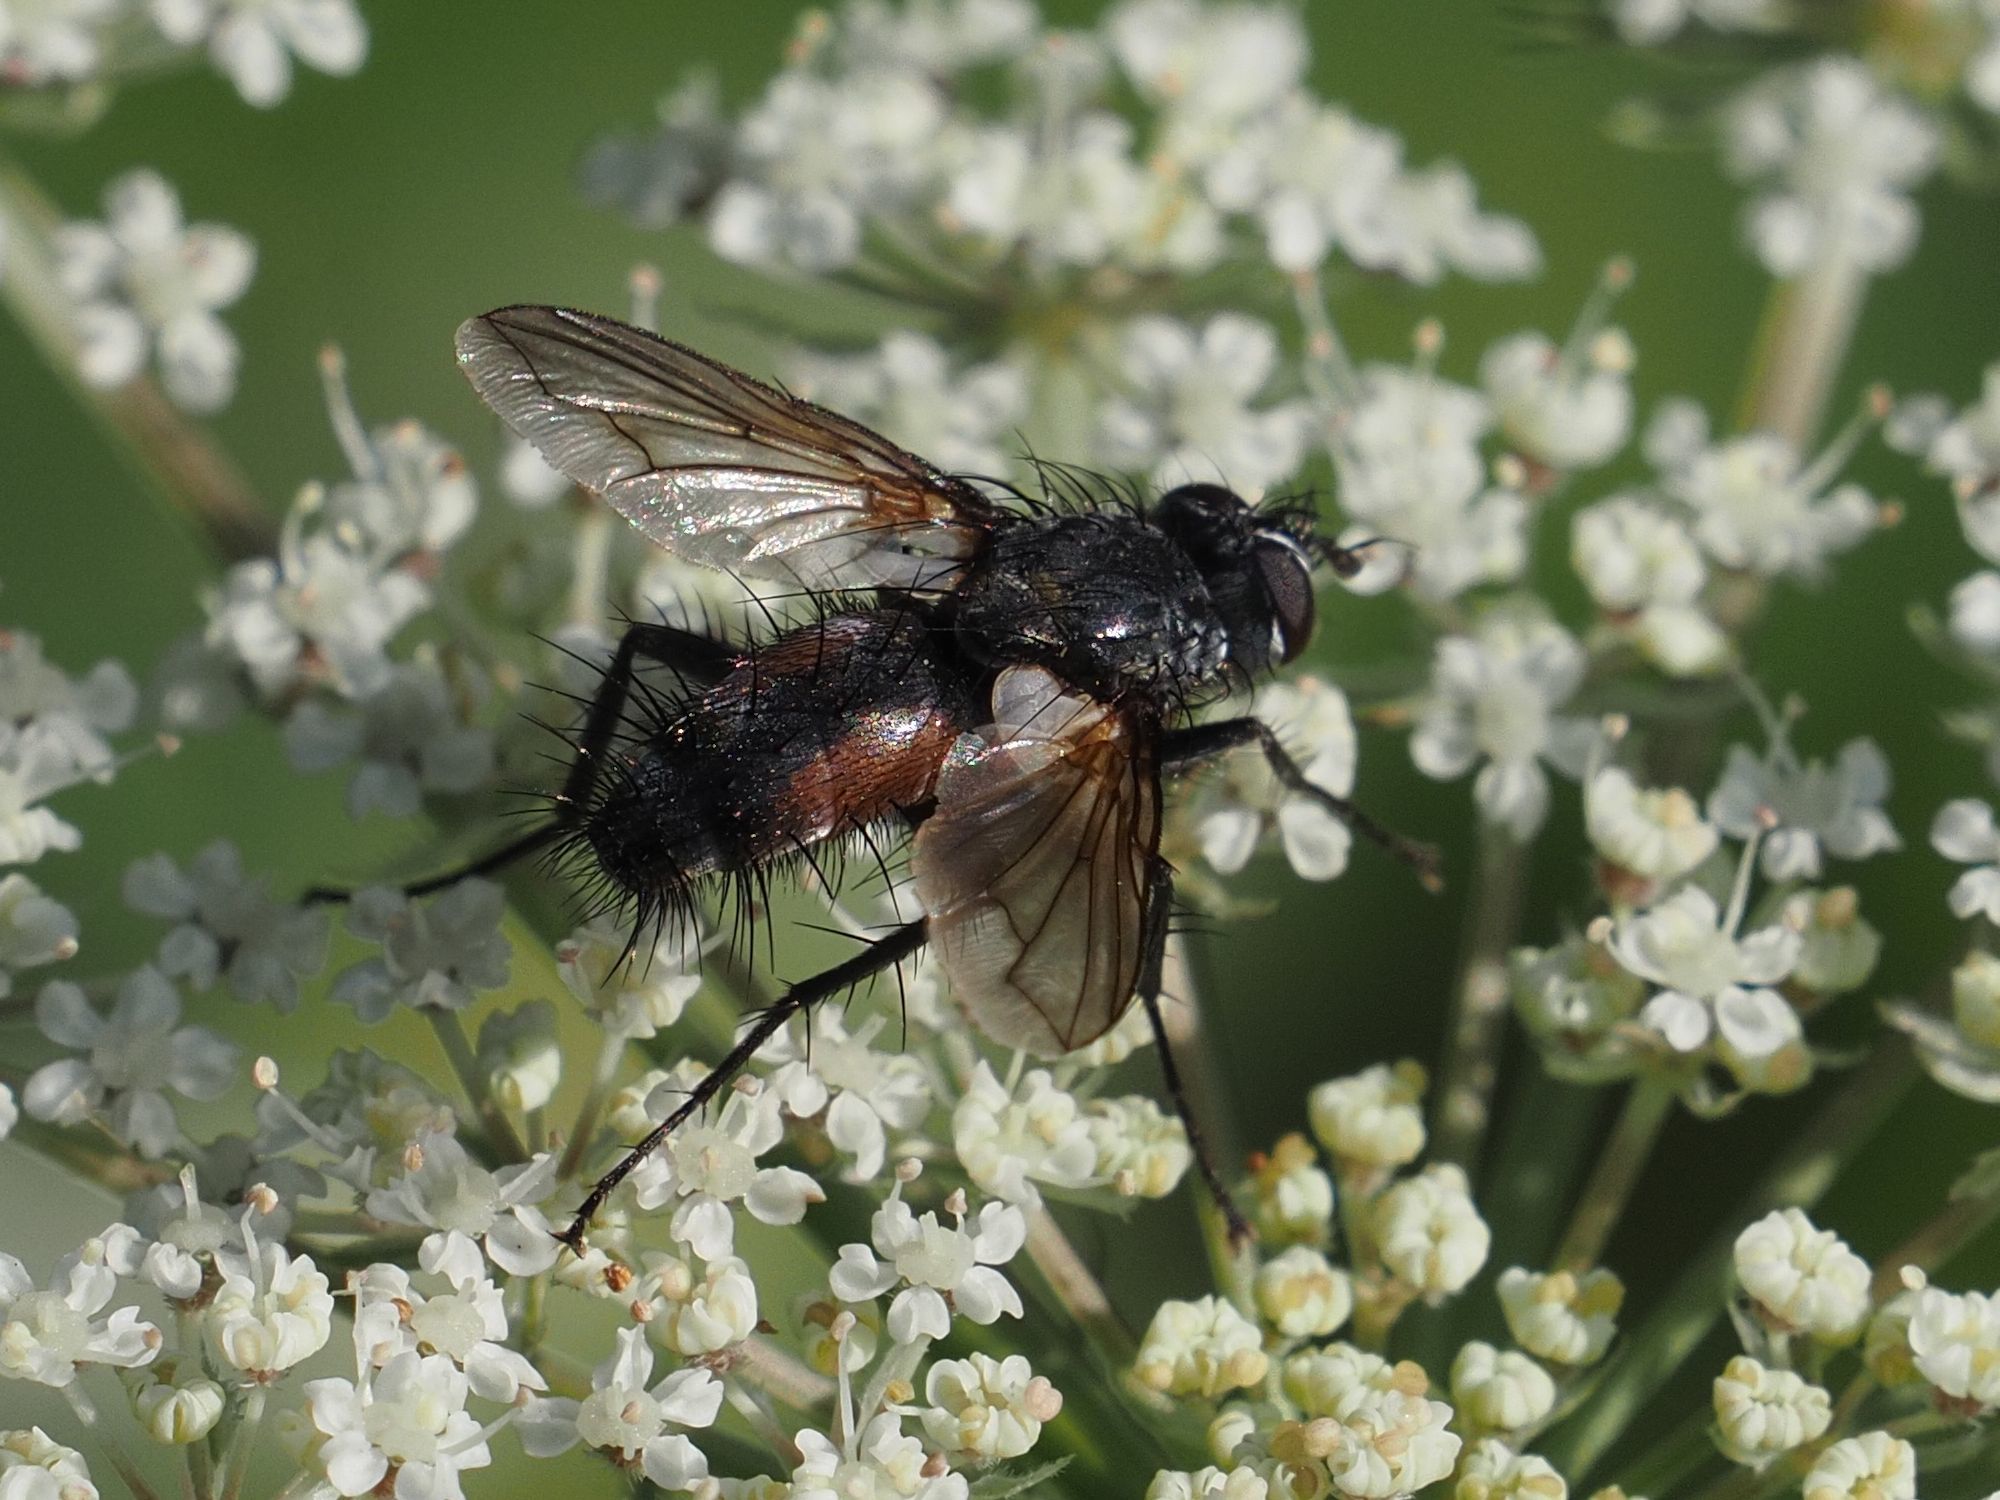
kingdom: Animalia
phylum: Arthropoda
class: Insecta
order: Diptera
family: Tachinidae
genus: Eriothrix
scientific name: Eriothrix rufomaculatus
